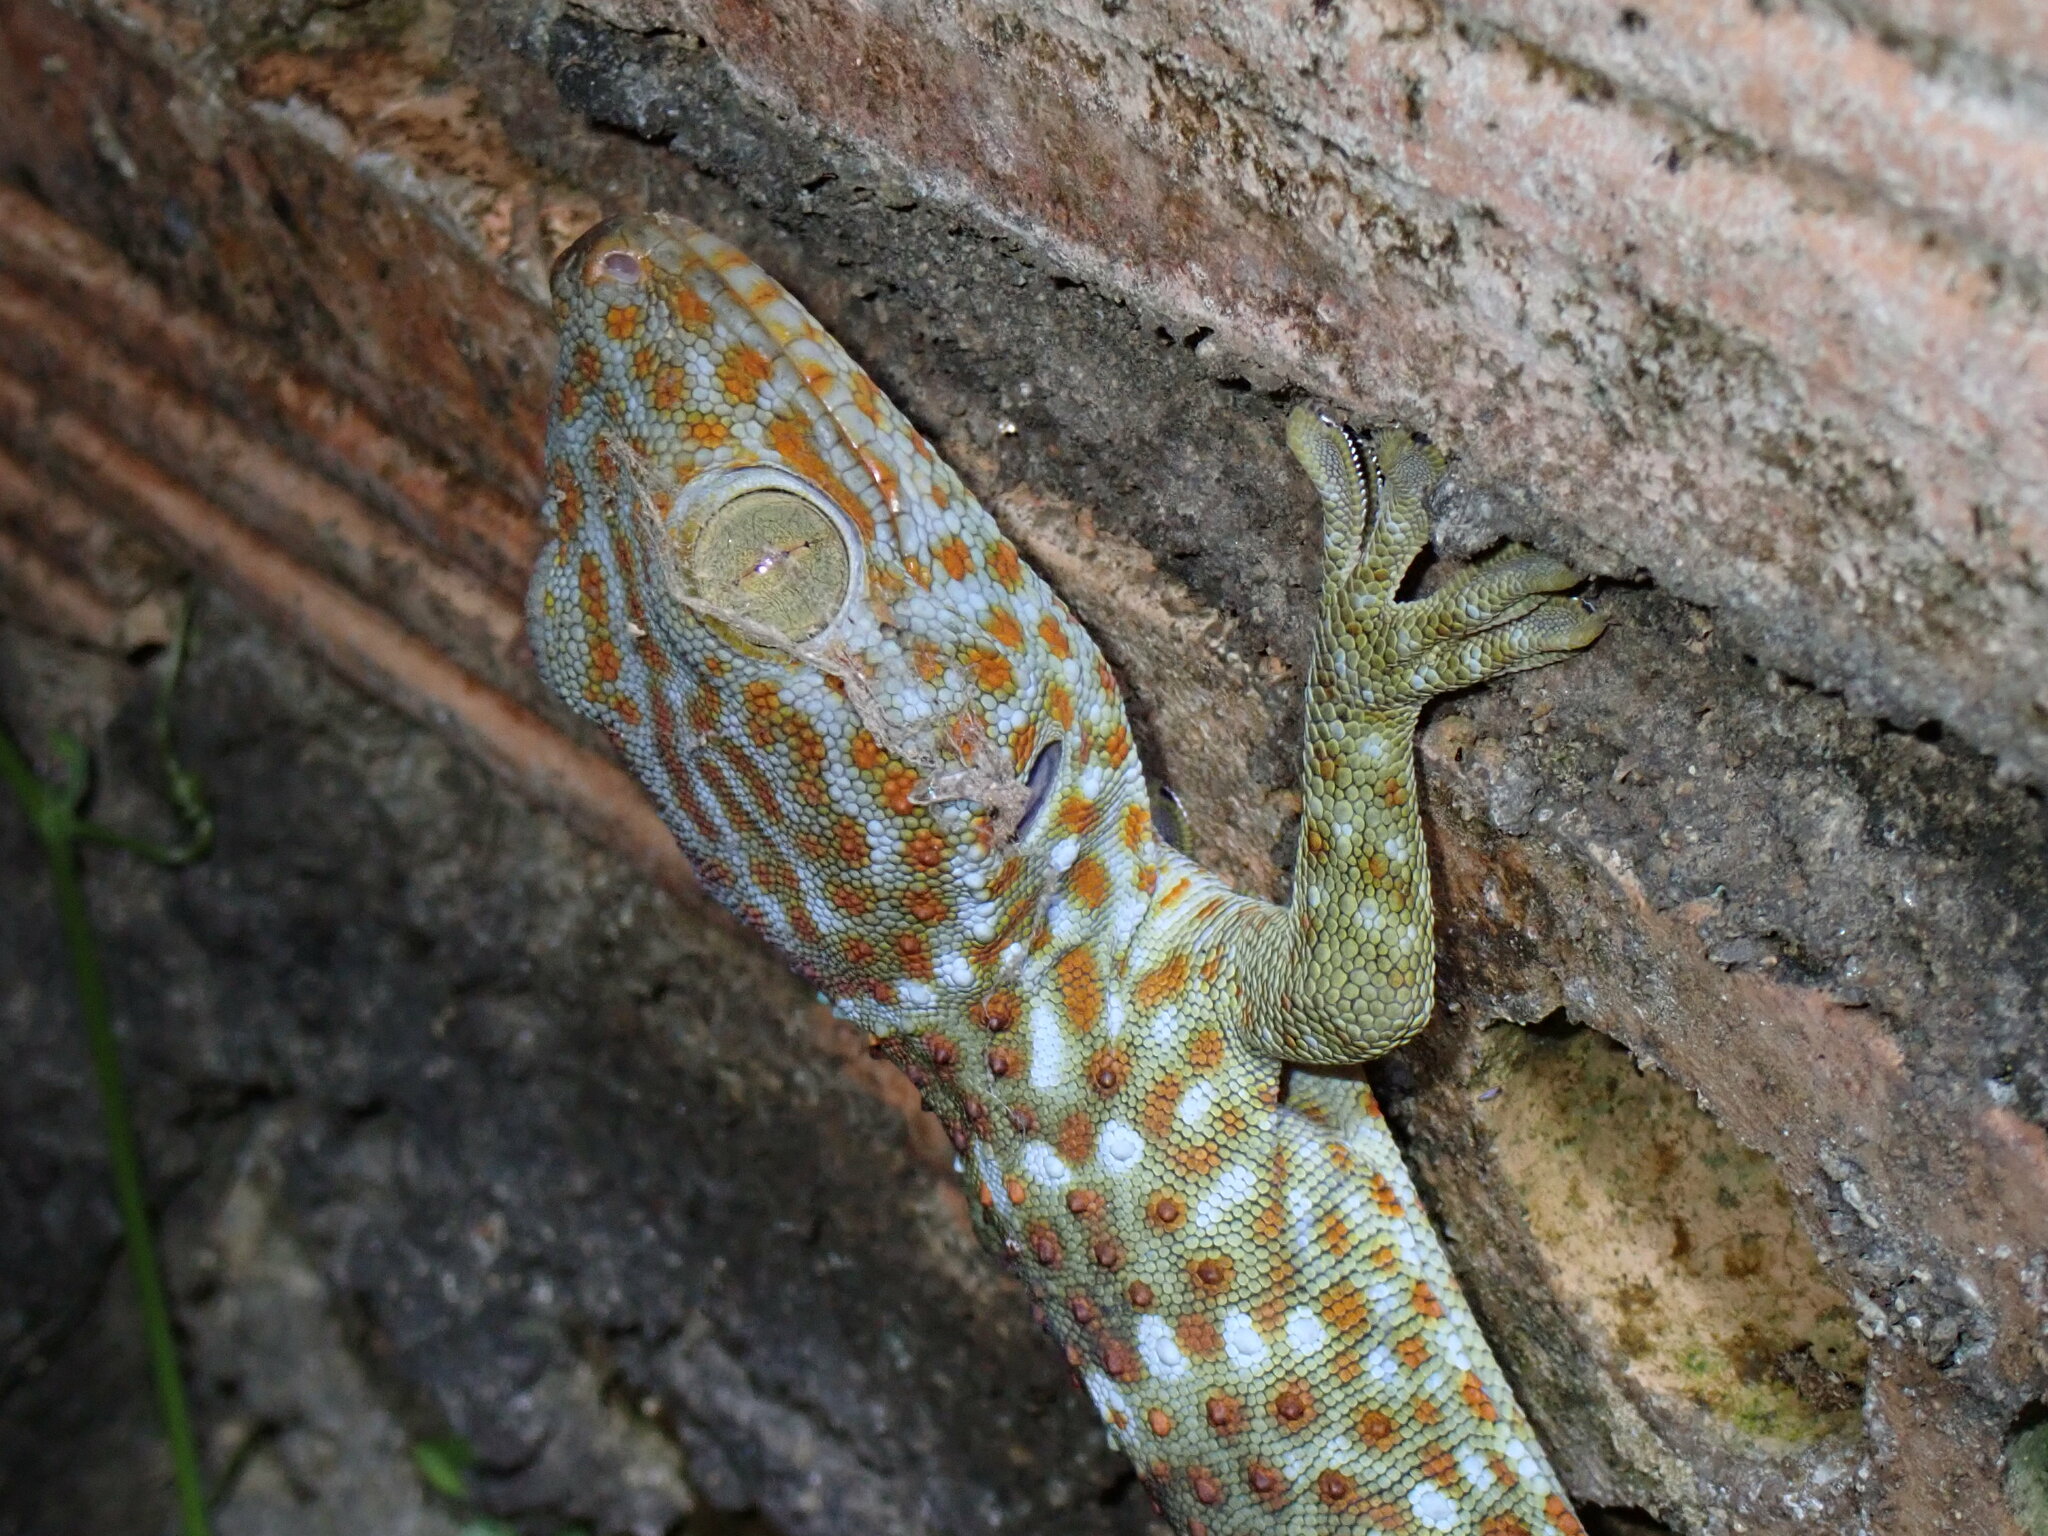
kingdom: Animalia
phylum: Chordata
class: Squamata
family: Gekkonidae
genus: Gekko
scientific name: Gekko gecko
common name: Tokay gecko
